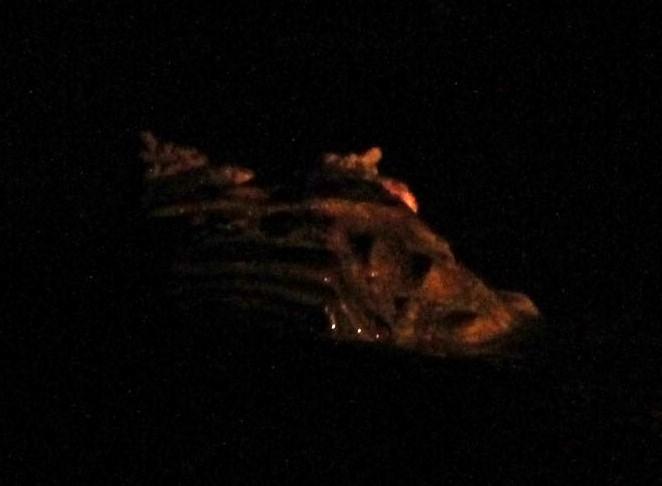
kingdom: Animalia
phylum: Chordata
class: Crocodylia
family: Alligatoridae
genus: Caiman
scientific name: Caiman crocodilus
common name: Common caiman
